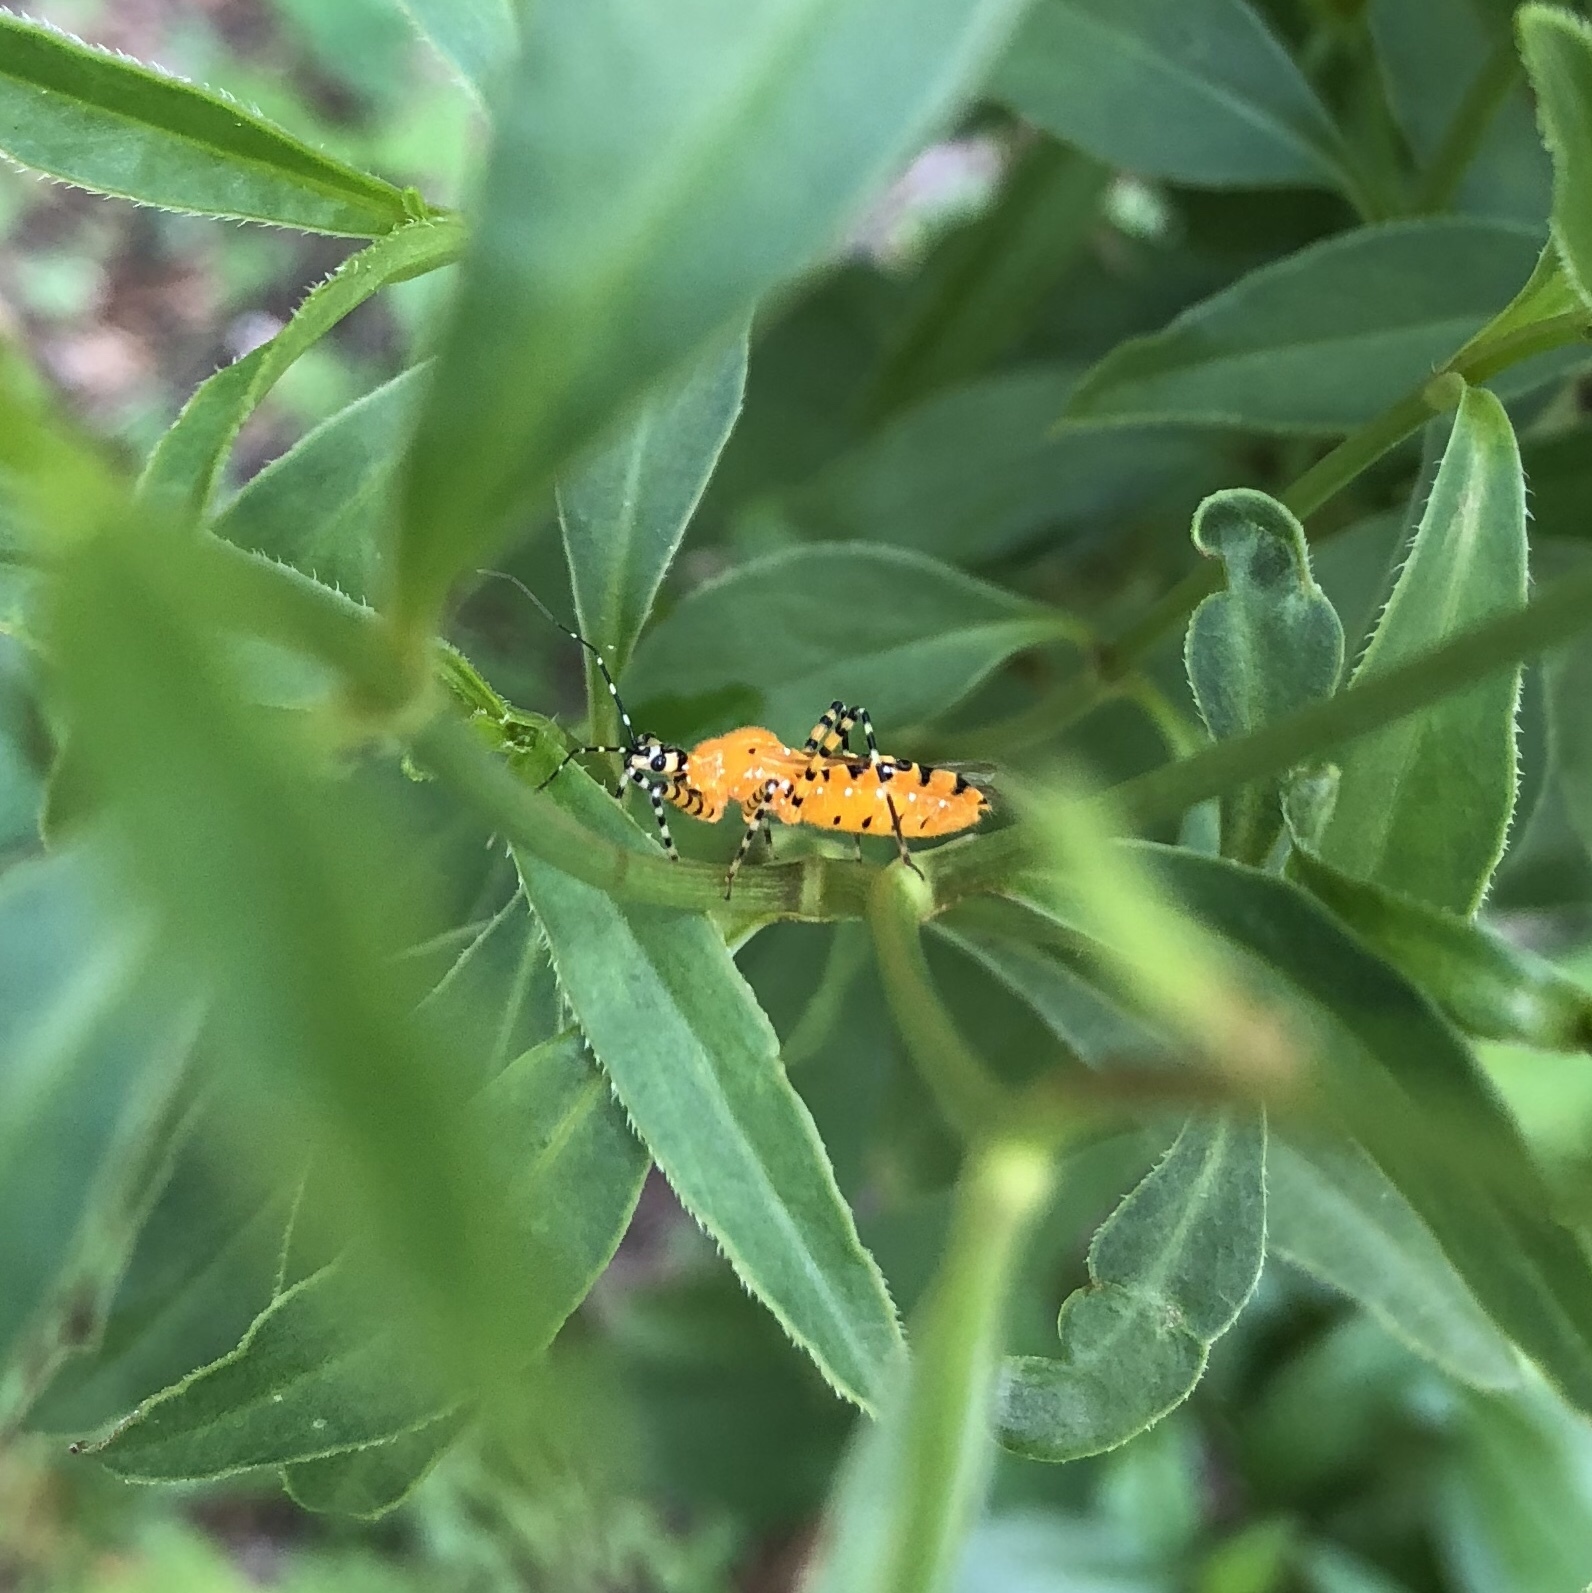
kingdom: Animalia
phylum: Arthropoda
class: Insecta
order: Hemiptera
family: Reduviidae
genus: Pselliopus
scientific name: Pselliopus barberi
